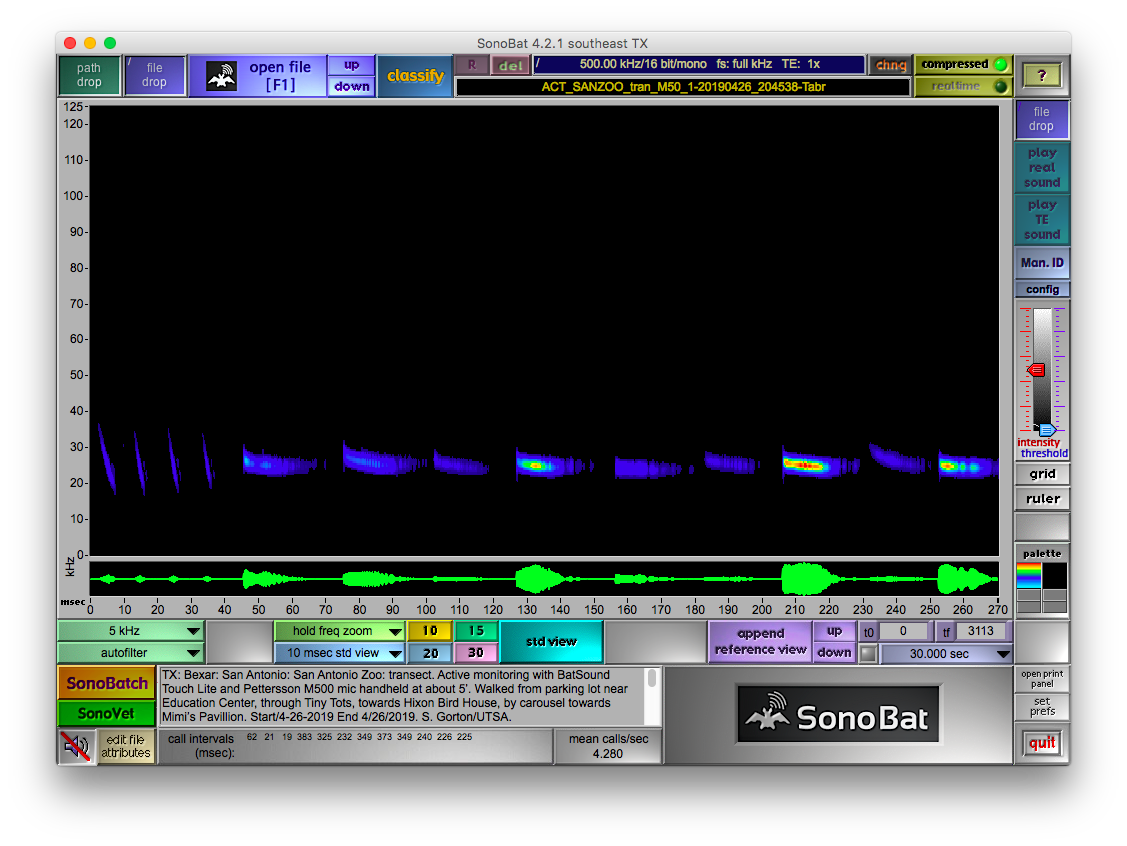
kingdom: Animalia
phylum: Chordata
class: Mammalia
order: Chiroptera
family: Molossidae
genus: Tadarida
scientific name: Tadarida brasiliensis
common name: Mexican free-tailed bat
